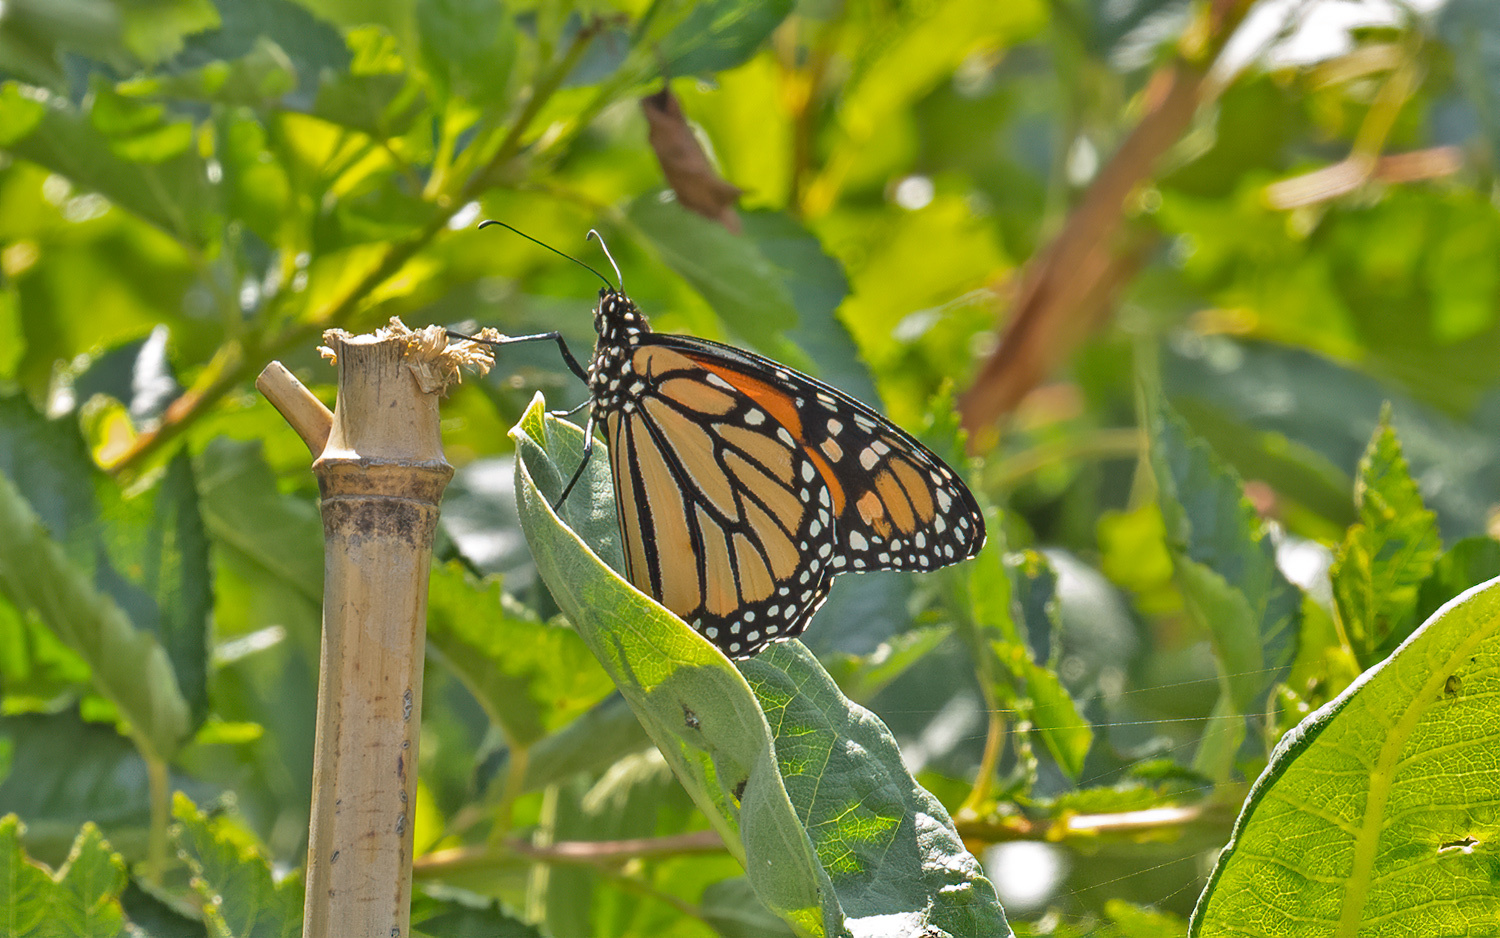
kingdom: Animalia
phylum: Arthropoda
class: Insecta
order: Lepidoptera
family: Nymphalidae
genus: Danaus
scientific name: Danaus plexippus
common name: Monarch
